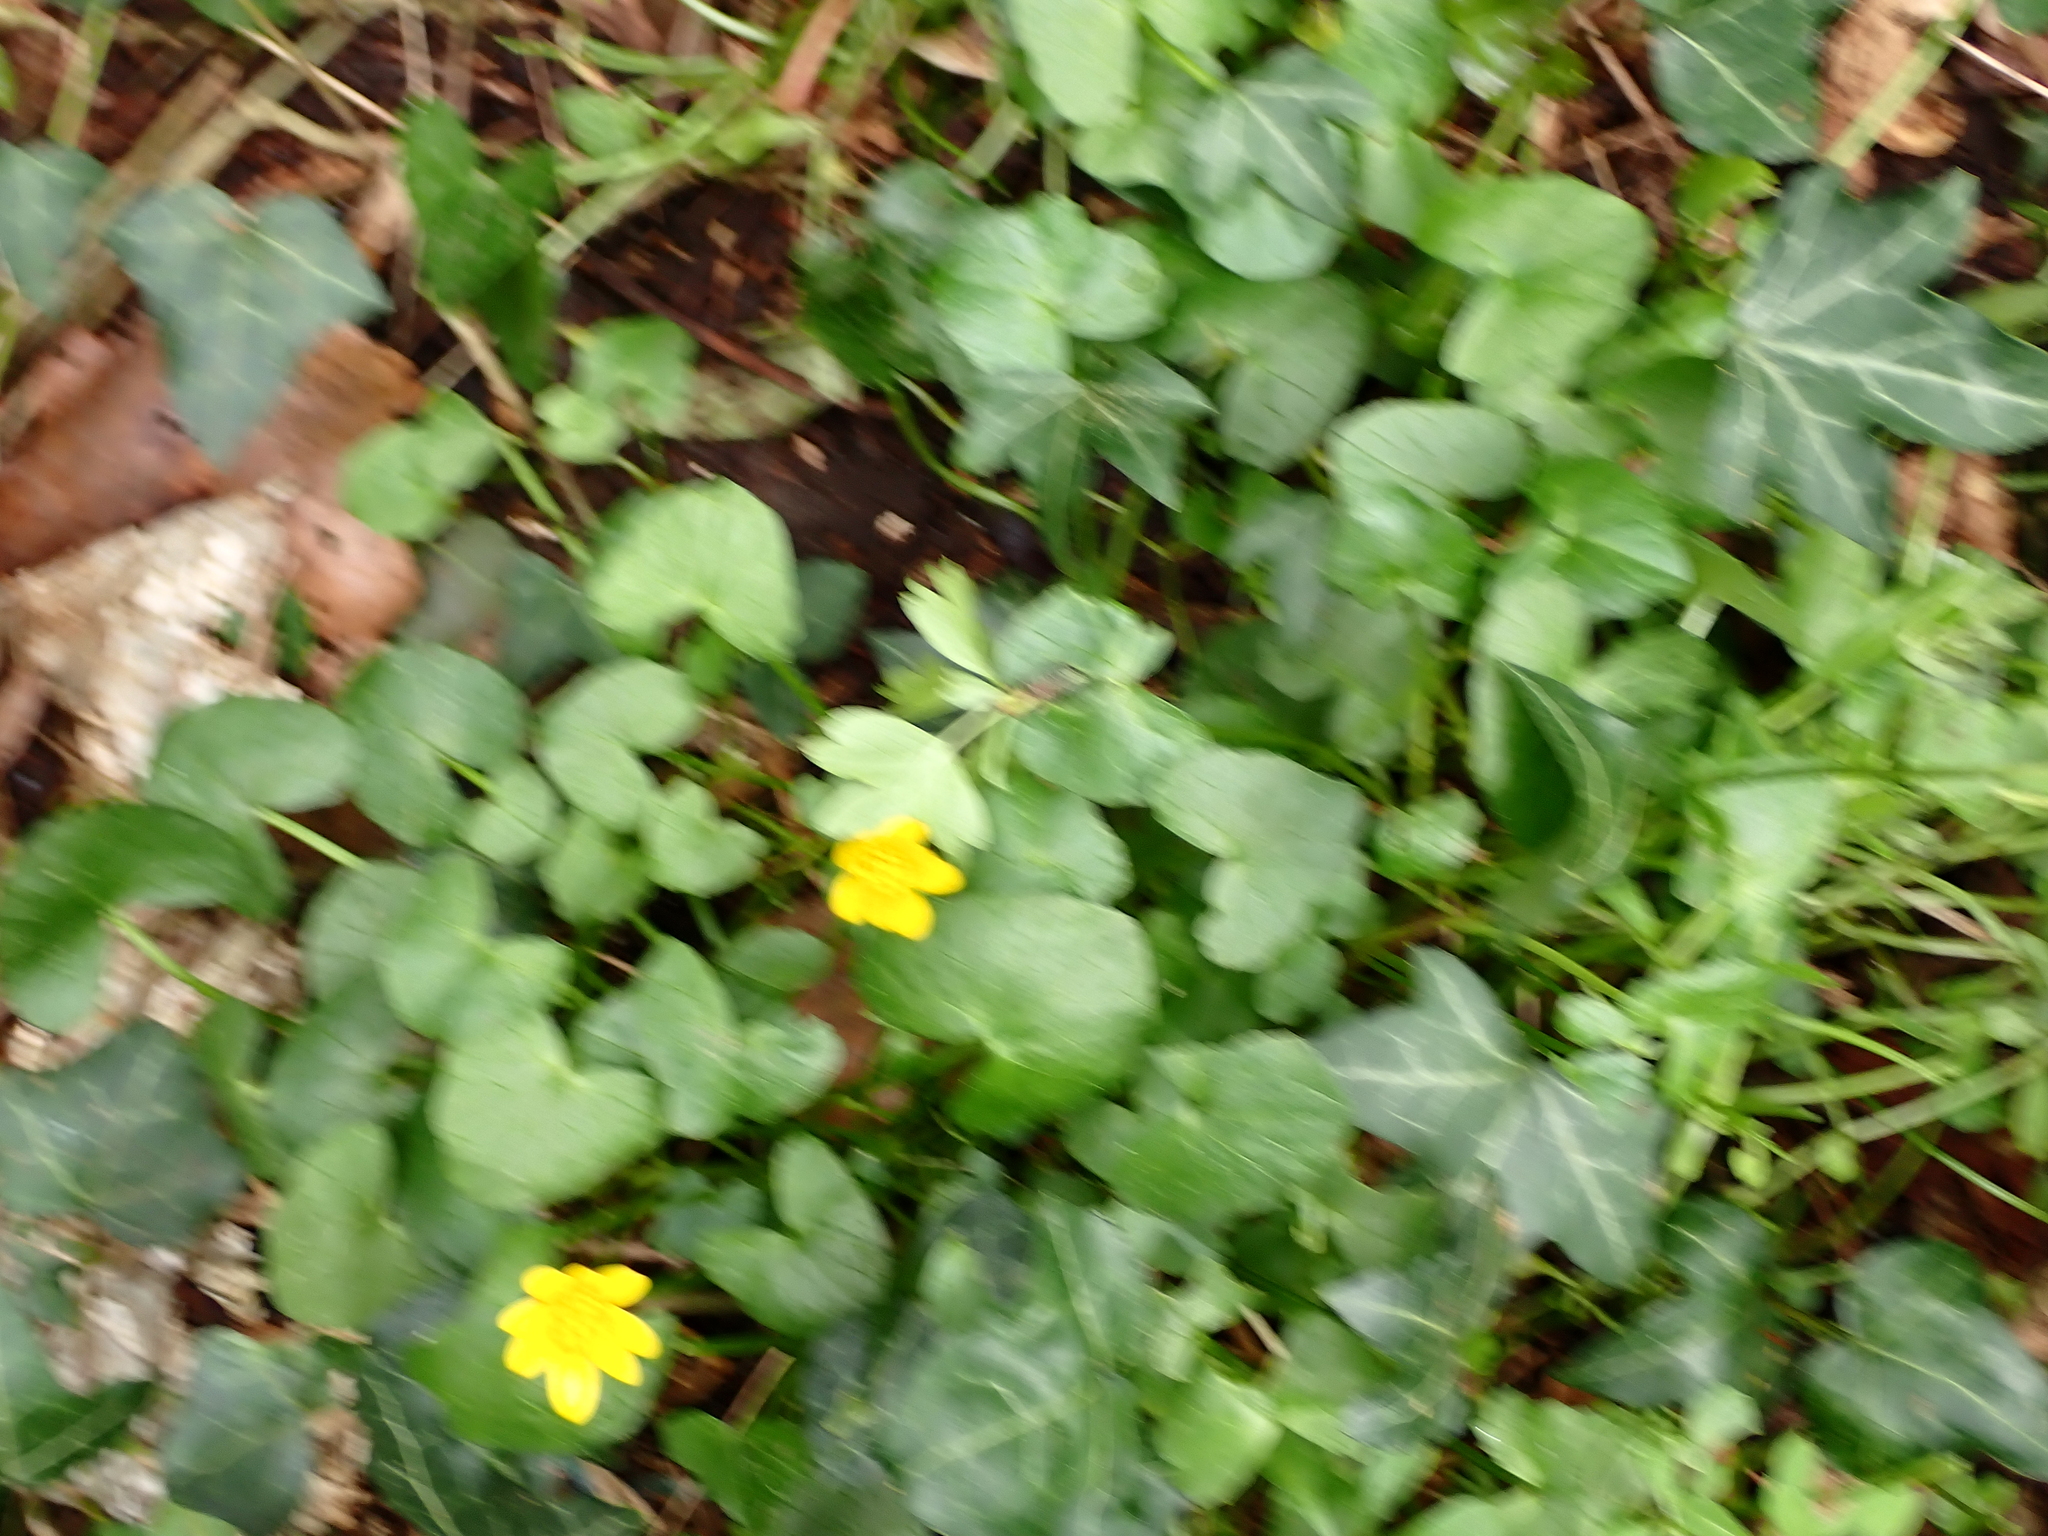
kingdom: Plantae
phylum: Tracheophyta
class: Magnoliopsida
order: Ranunculales
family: Ranunculaceae
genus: Ficaria
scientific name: Ficaria verna
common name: Lesser celandine
